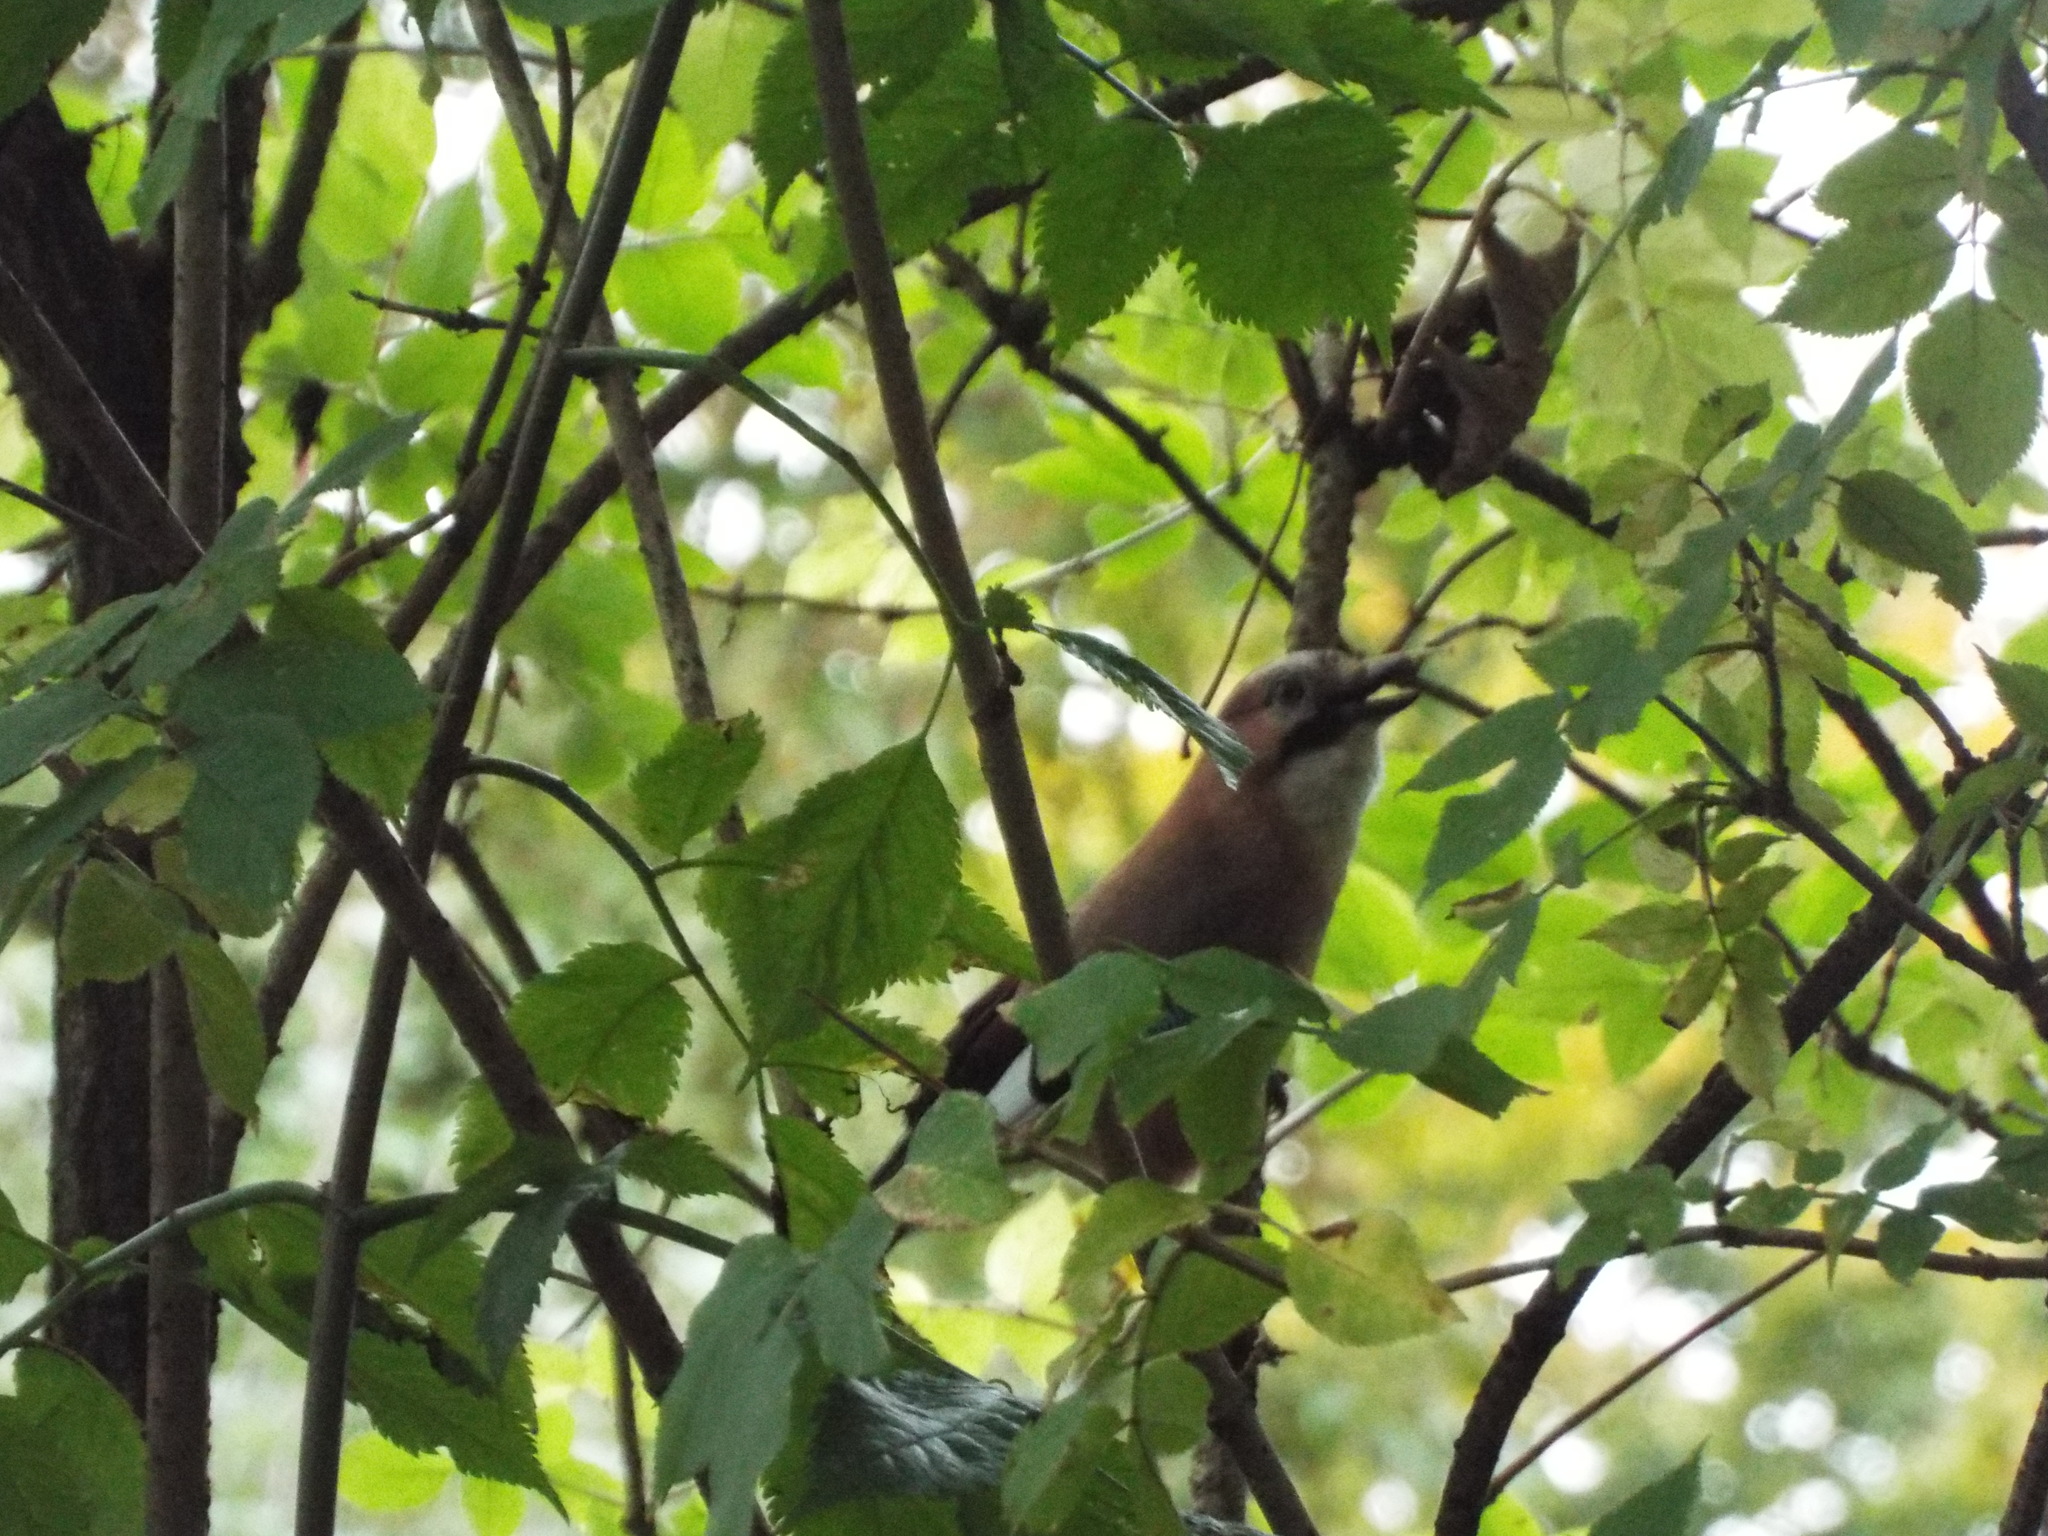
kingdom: Animalia
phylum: Chordata
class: Aves
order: Passeriformes
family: Corvidae
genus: Garrulus
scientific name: Garrulus glandarius
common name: Eurasian jay
